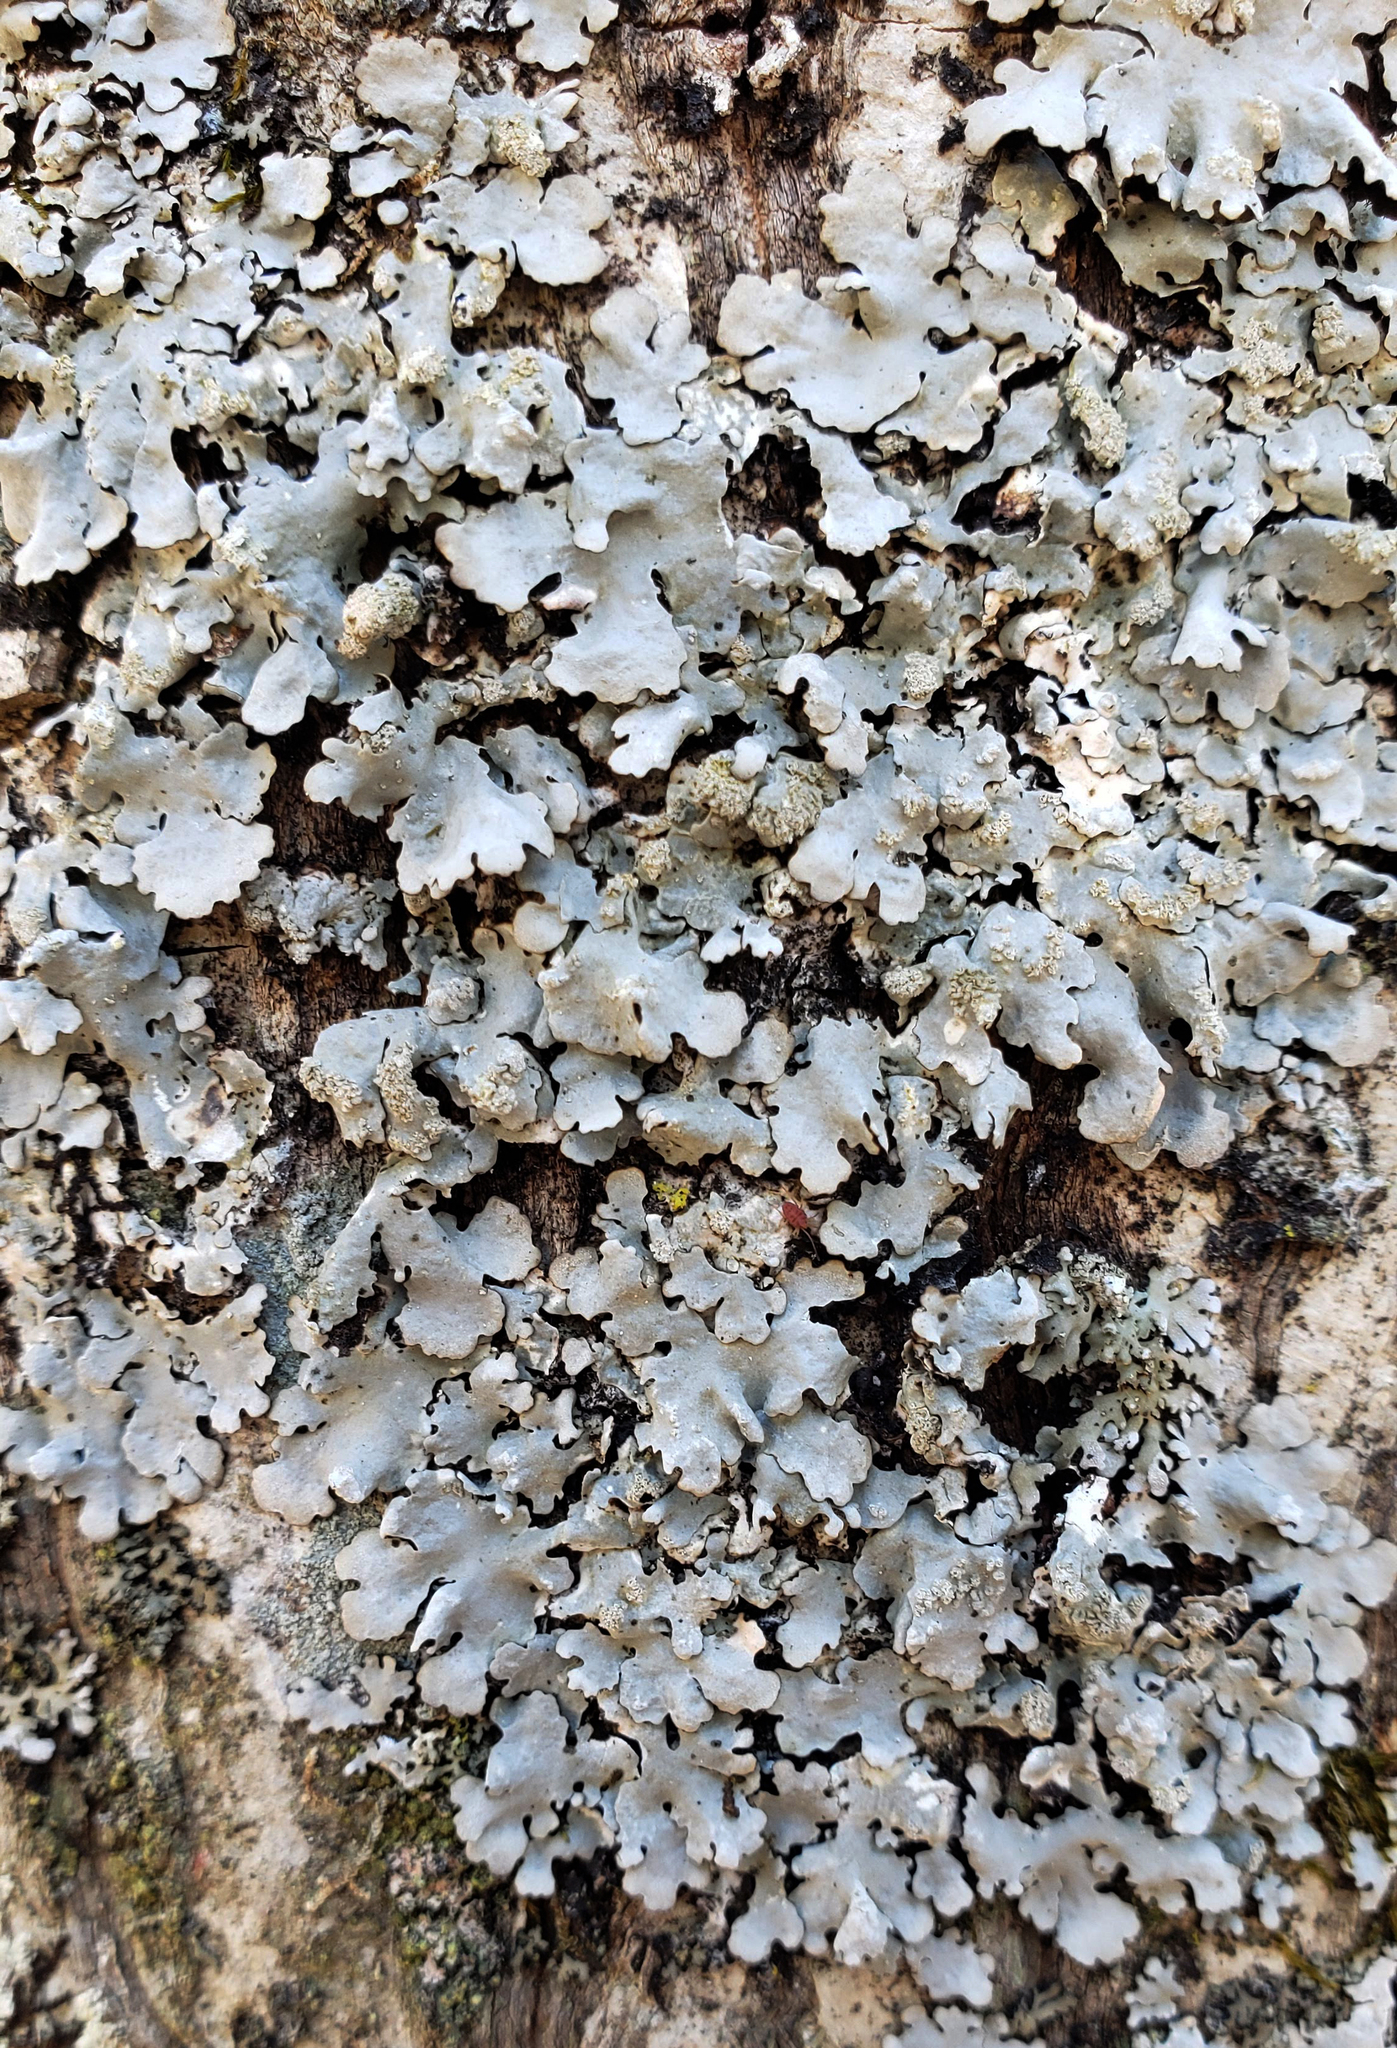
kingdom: Fungi
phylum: Ascomycota
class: Lecanoromycetes
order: Lecanorales
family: Parmeliaceae
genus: Myelochroa
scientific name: Myelochroa aurulenta
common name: Powdery axil-bristle lichen
